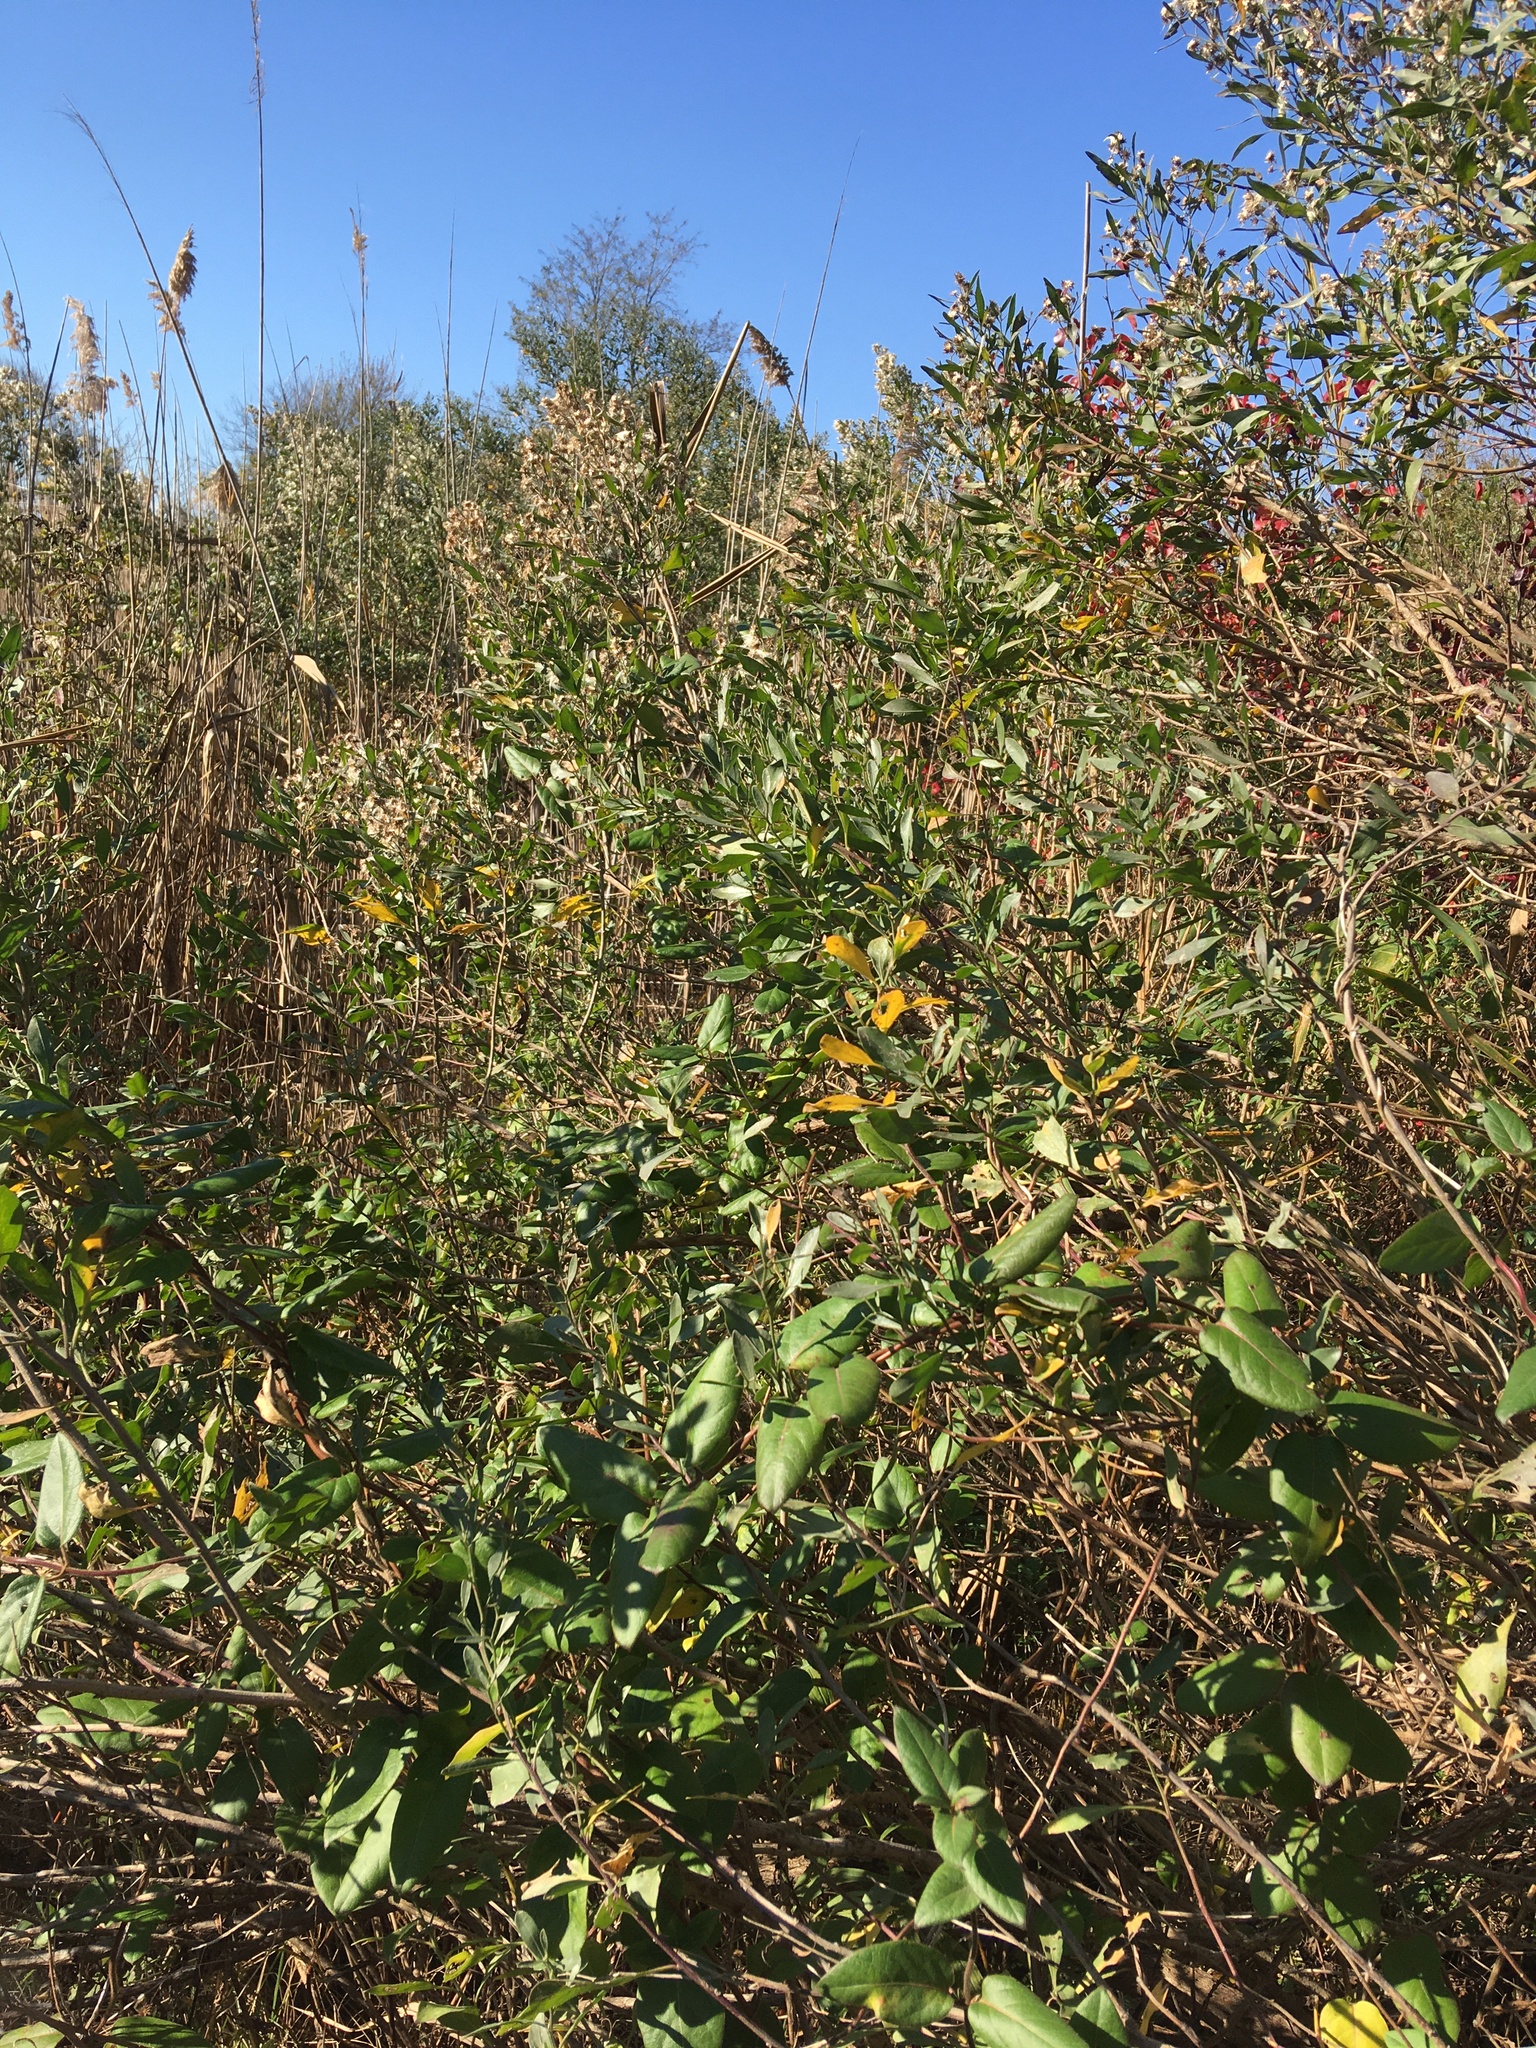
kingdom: Plantae
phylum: Tracheophyta
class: Magnoliopsida
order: Asterales
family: Asteraceae
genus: Baccharis
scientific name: Baccharis halimifolia
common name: Eastern baccharis
